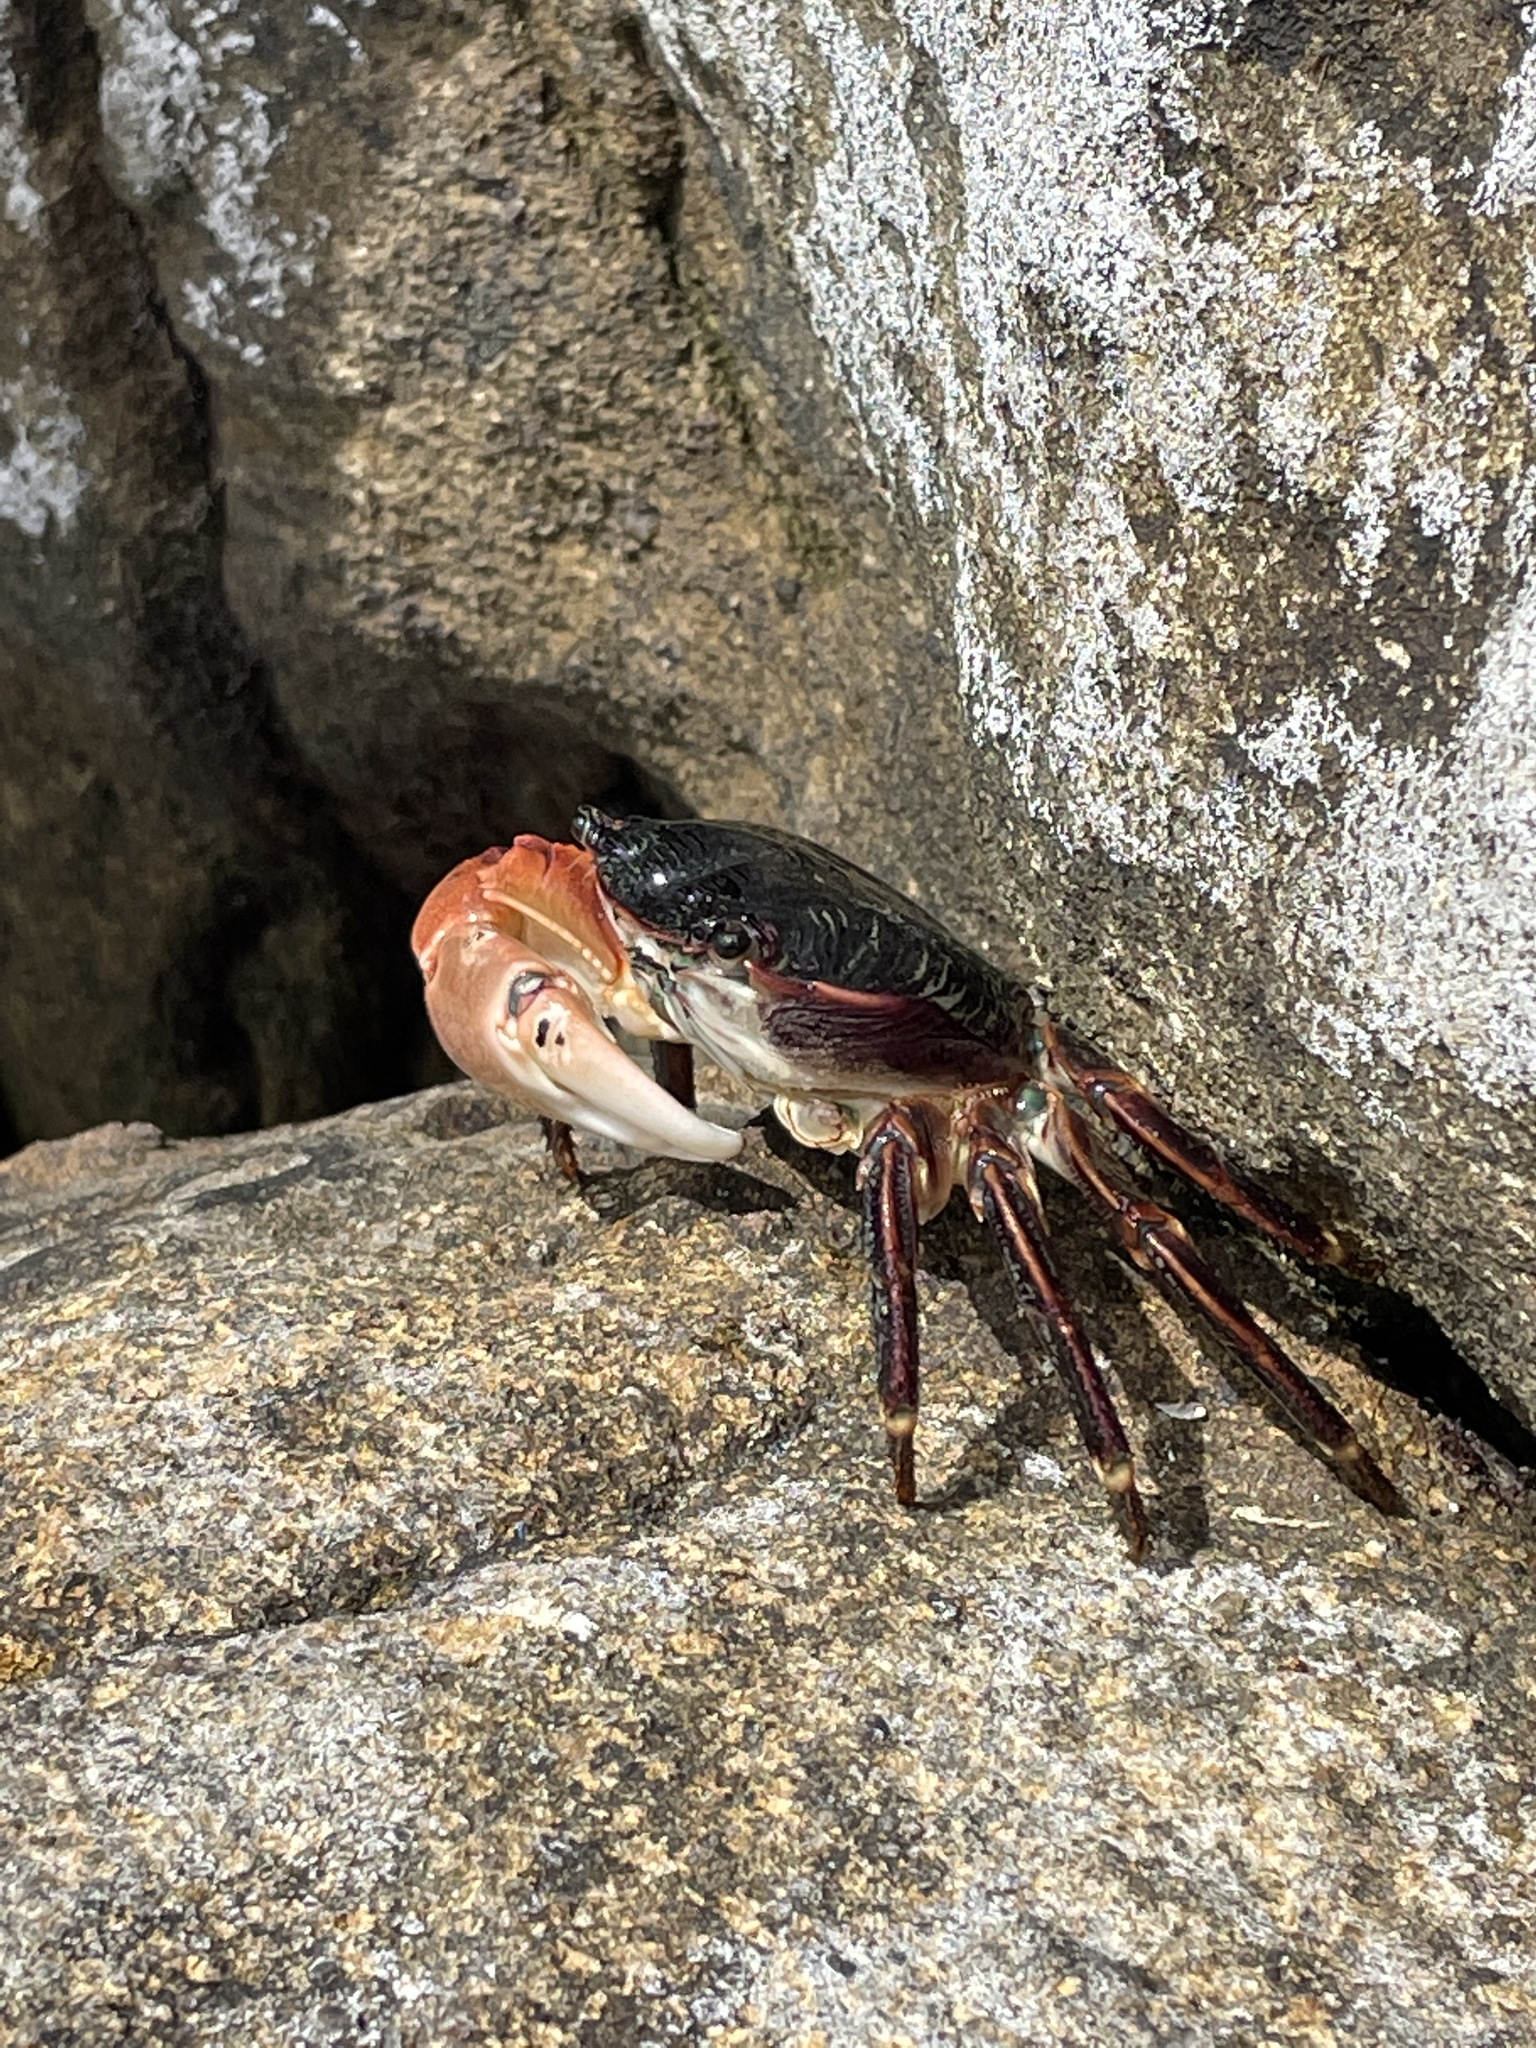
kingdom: Animalia
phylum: Arthropoda
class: Malacostraca
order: Decapoda
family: Grapsidae
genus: Pachygrapsus
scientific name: Pachygrapsus crassipes
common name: Striped shore crab
